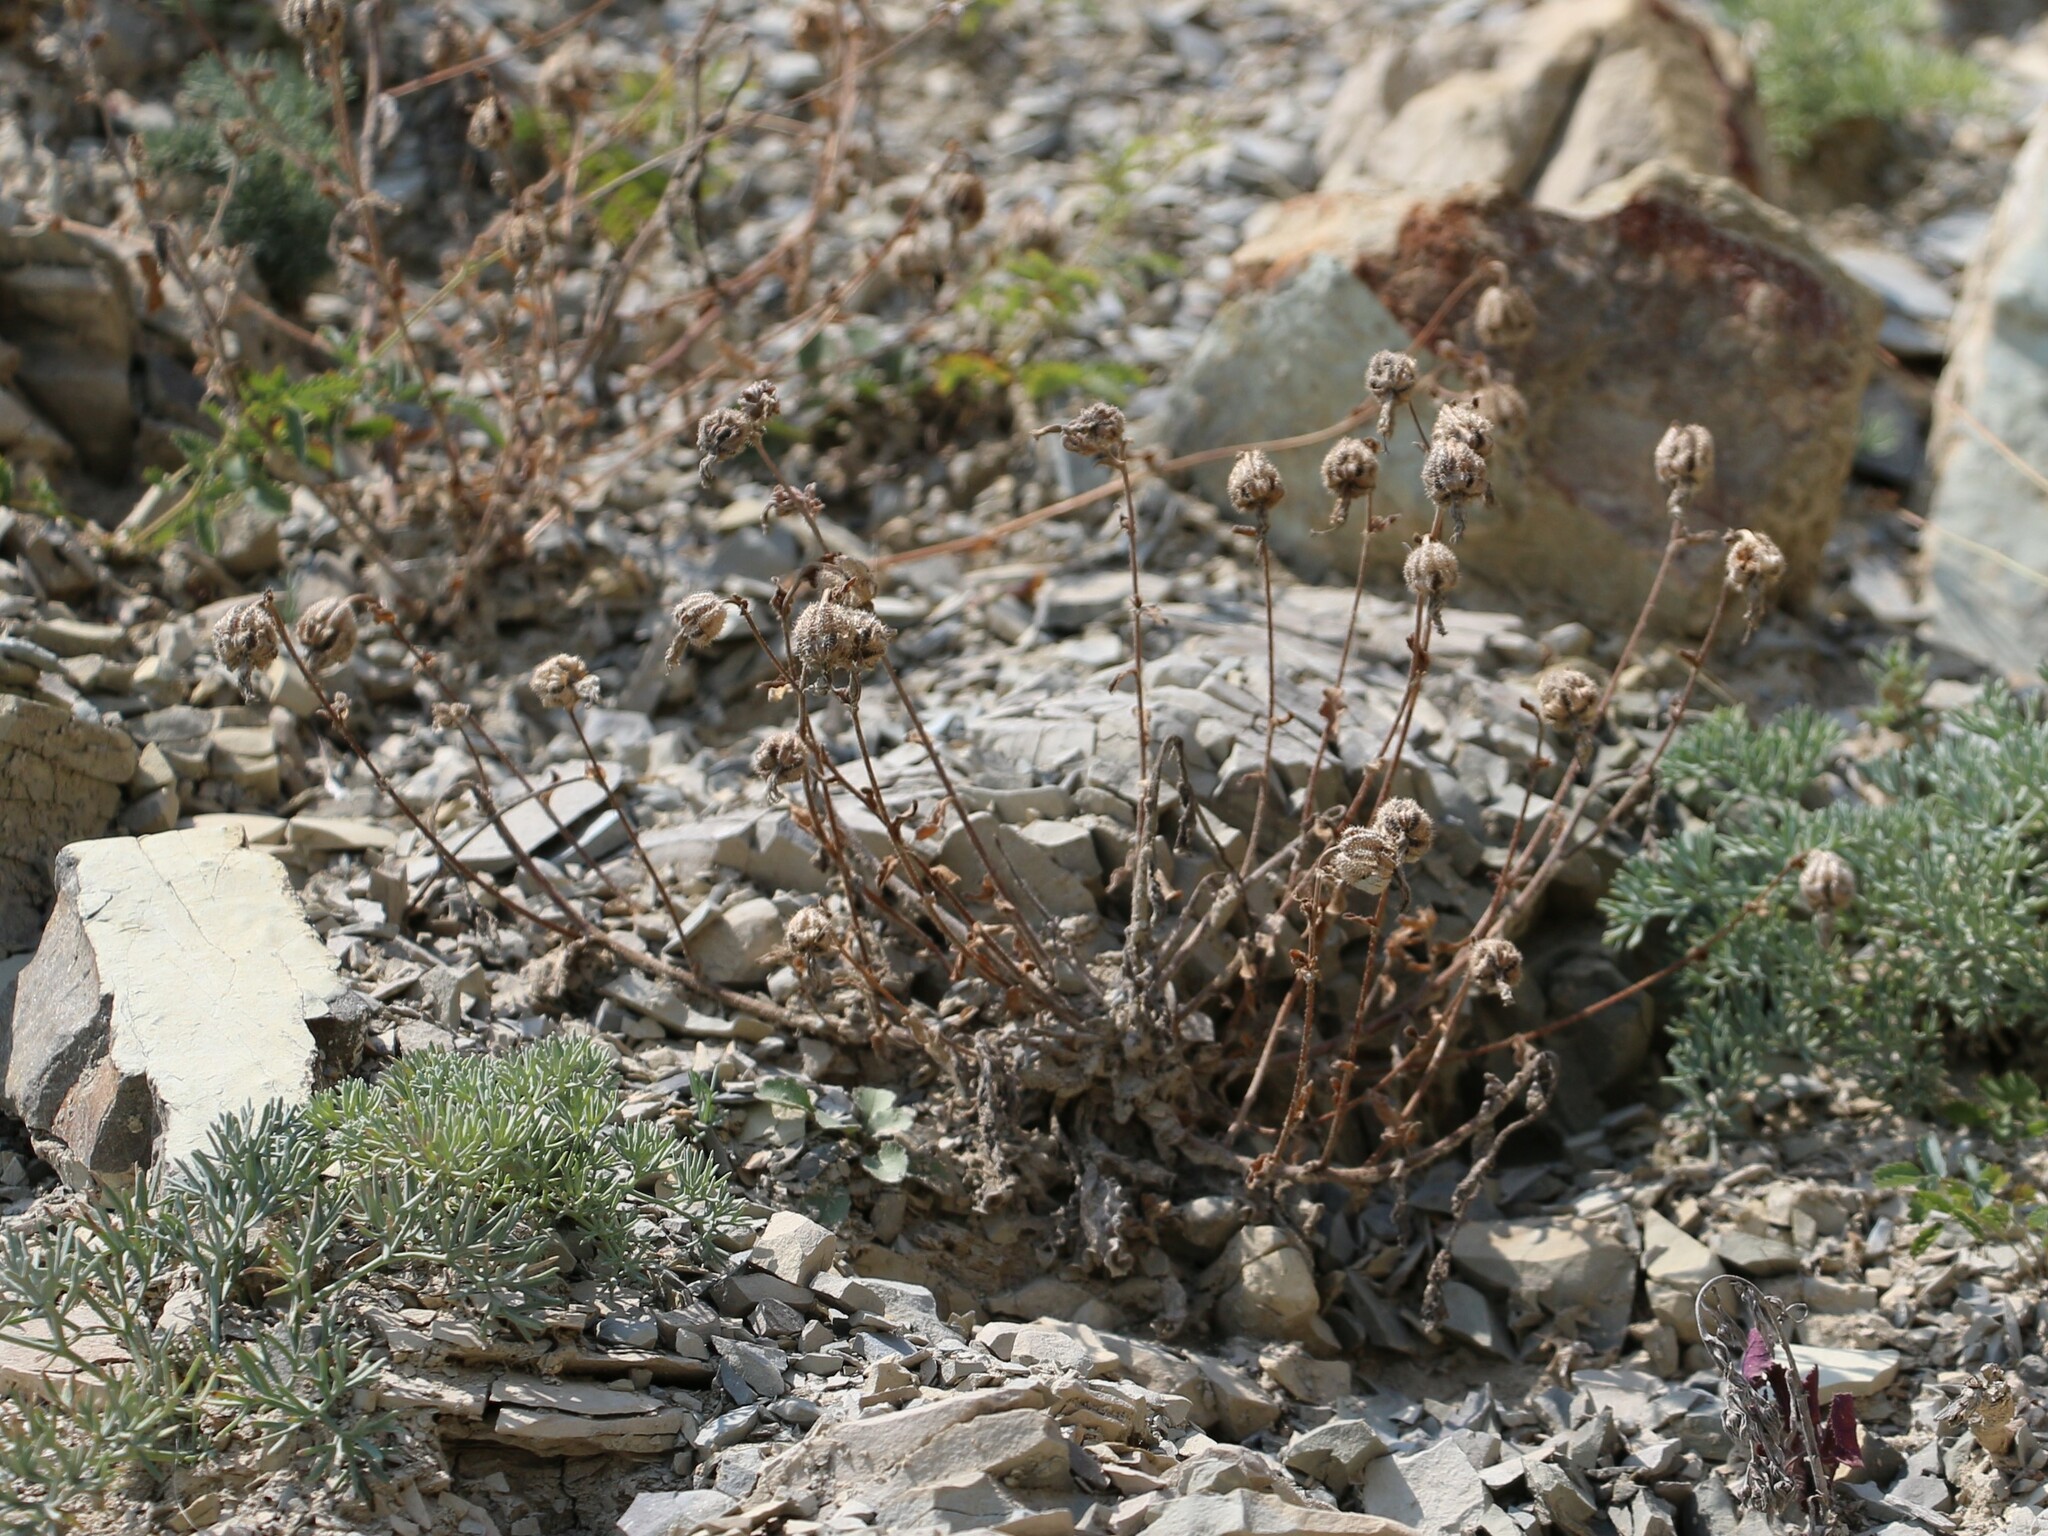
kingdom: Plantae
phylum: Tracheophyta
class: Magnoliopsida
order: Asterales
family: Campanulaceae
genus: Campanula
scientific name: Campanula komarovii
